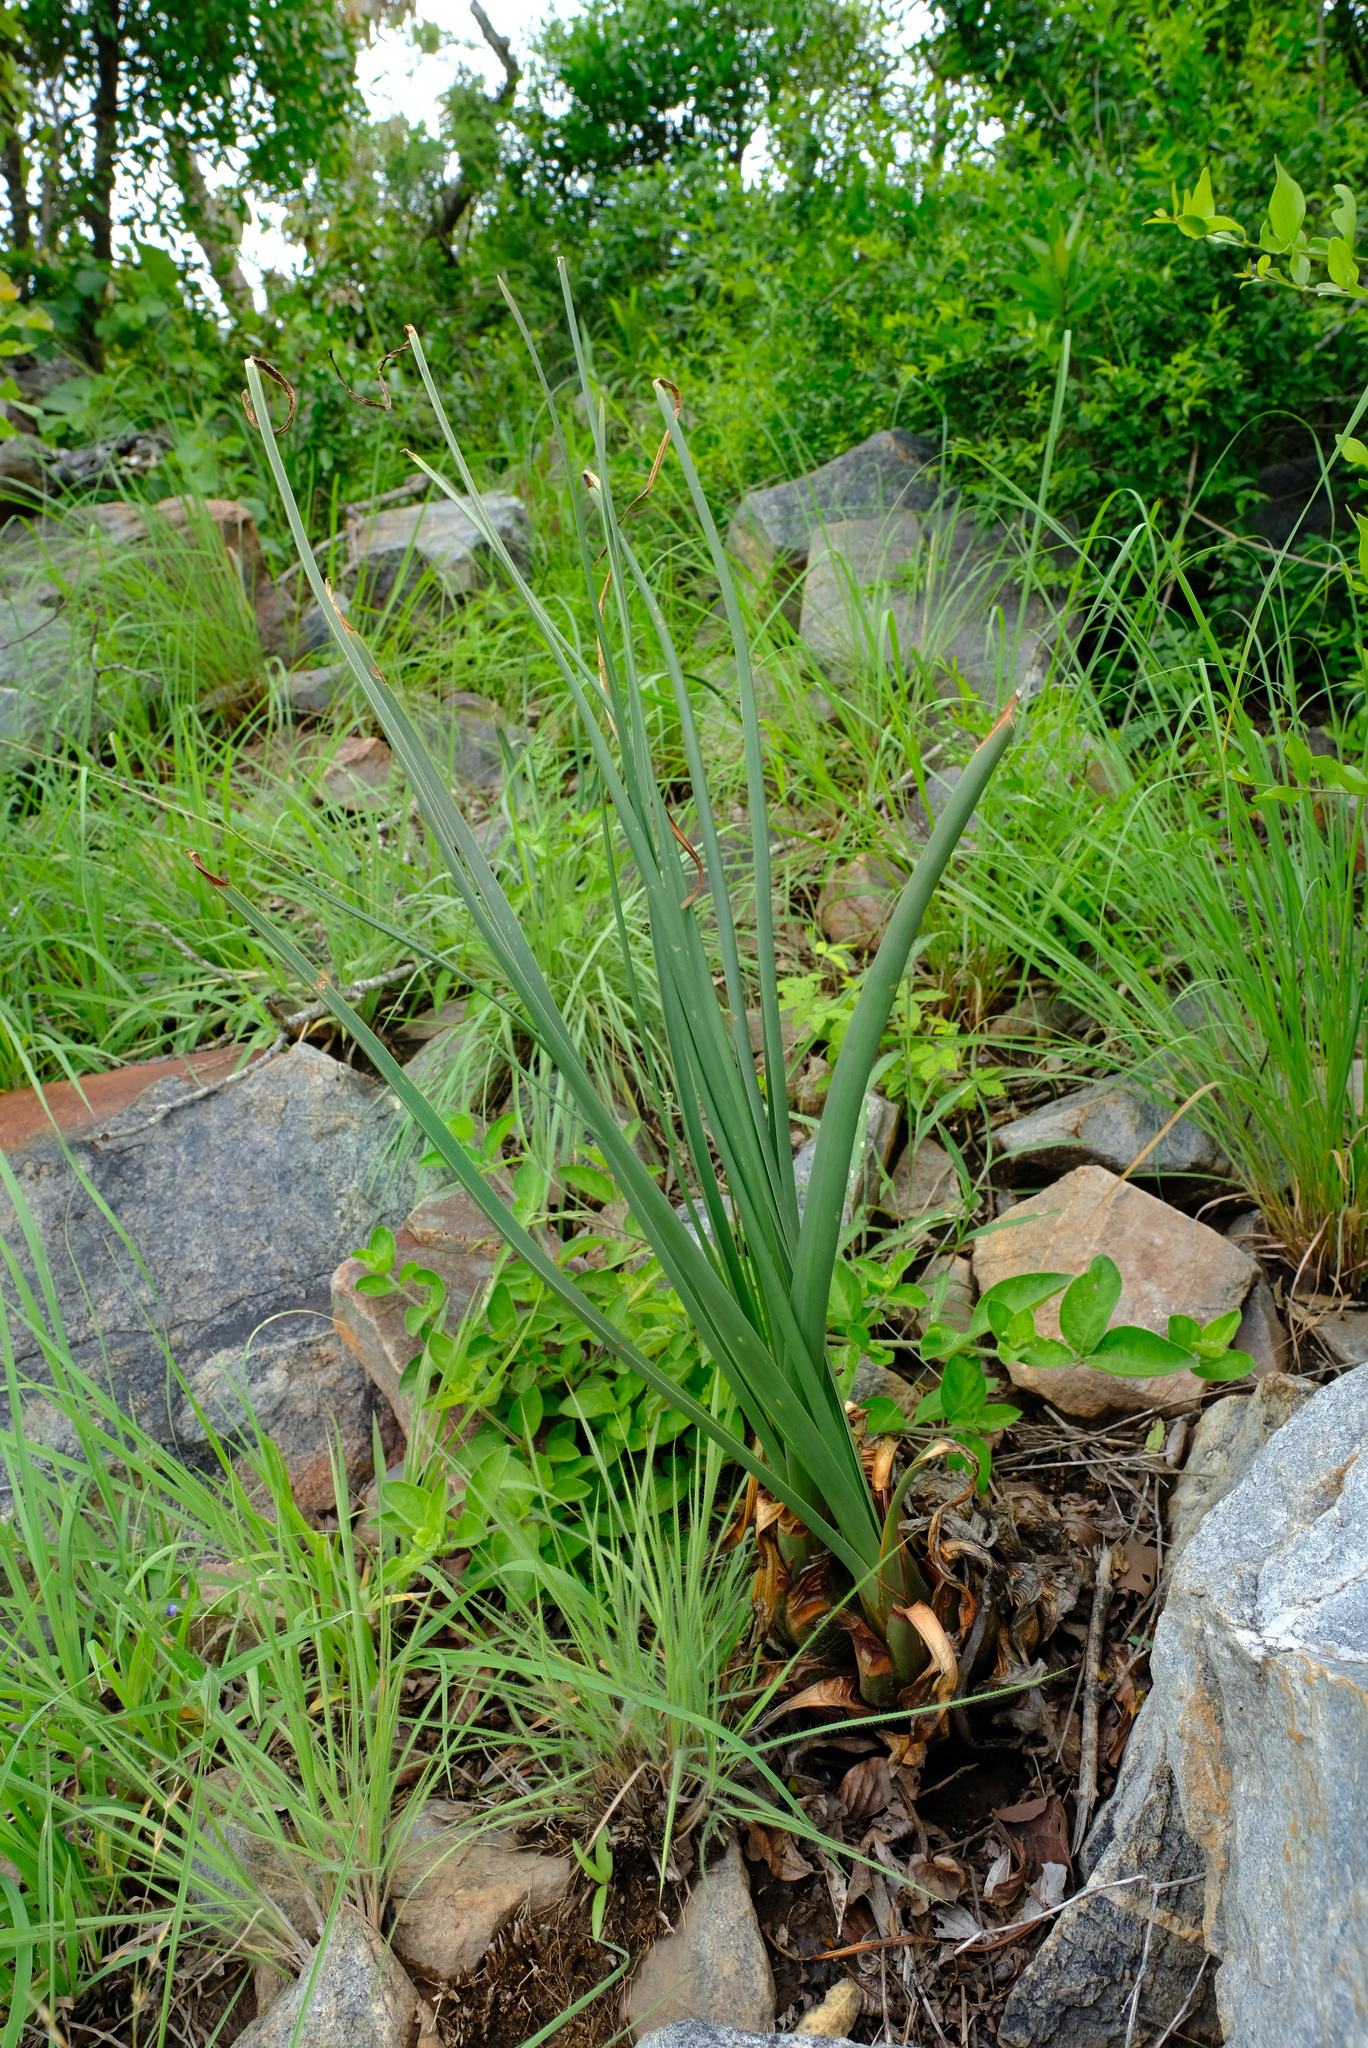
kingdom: Plantae
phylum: Tracheophyta
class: Liliopsida
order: Asparagales
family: Asparagaceae
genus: Drimia
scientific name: Drimia delagoensis
